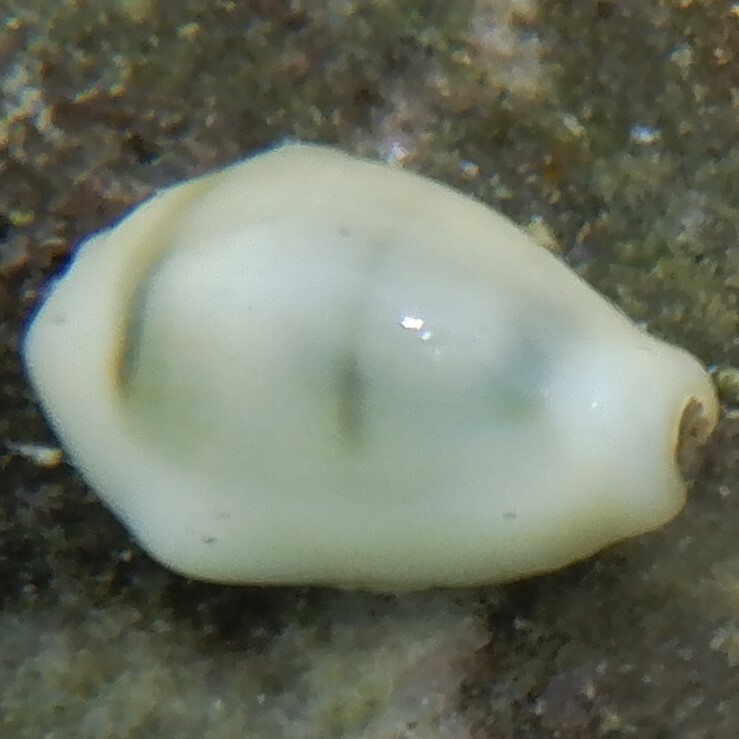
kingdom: Animalia
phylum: Mollusca
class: Gastropoda
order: Littorinimorpha
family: Cypraeidae
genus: Monetaria
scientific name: Monetaria moneta
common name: Money cowrie
